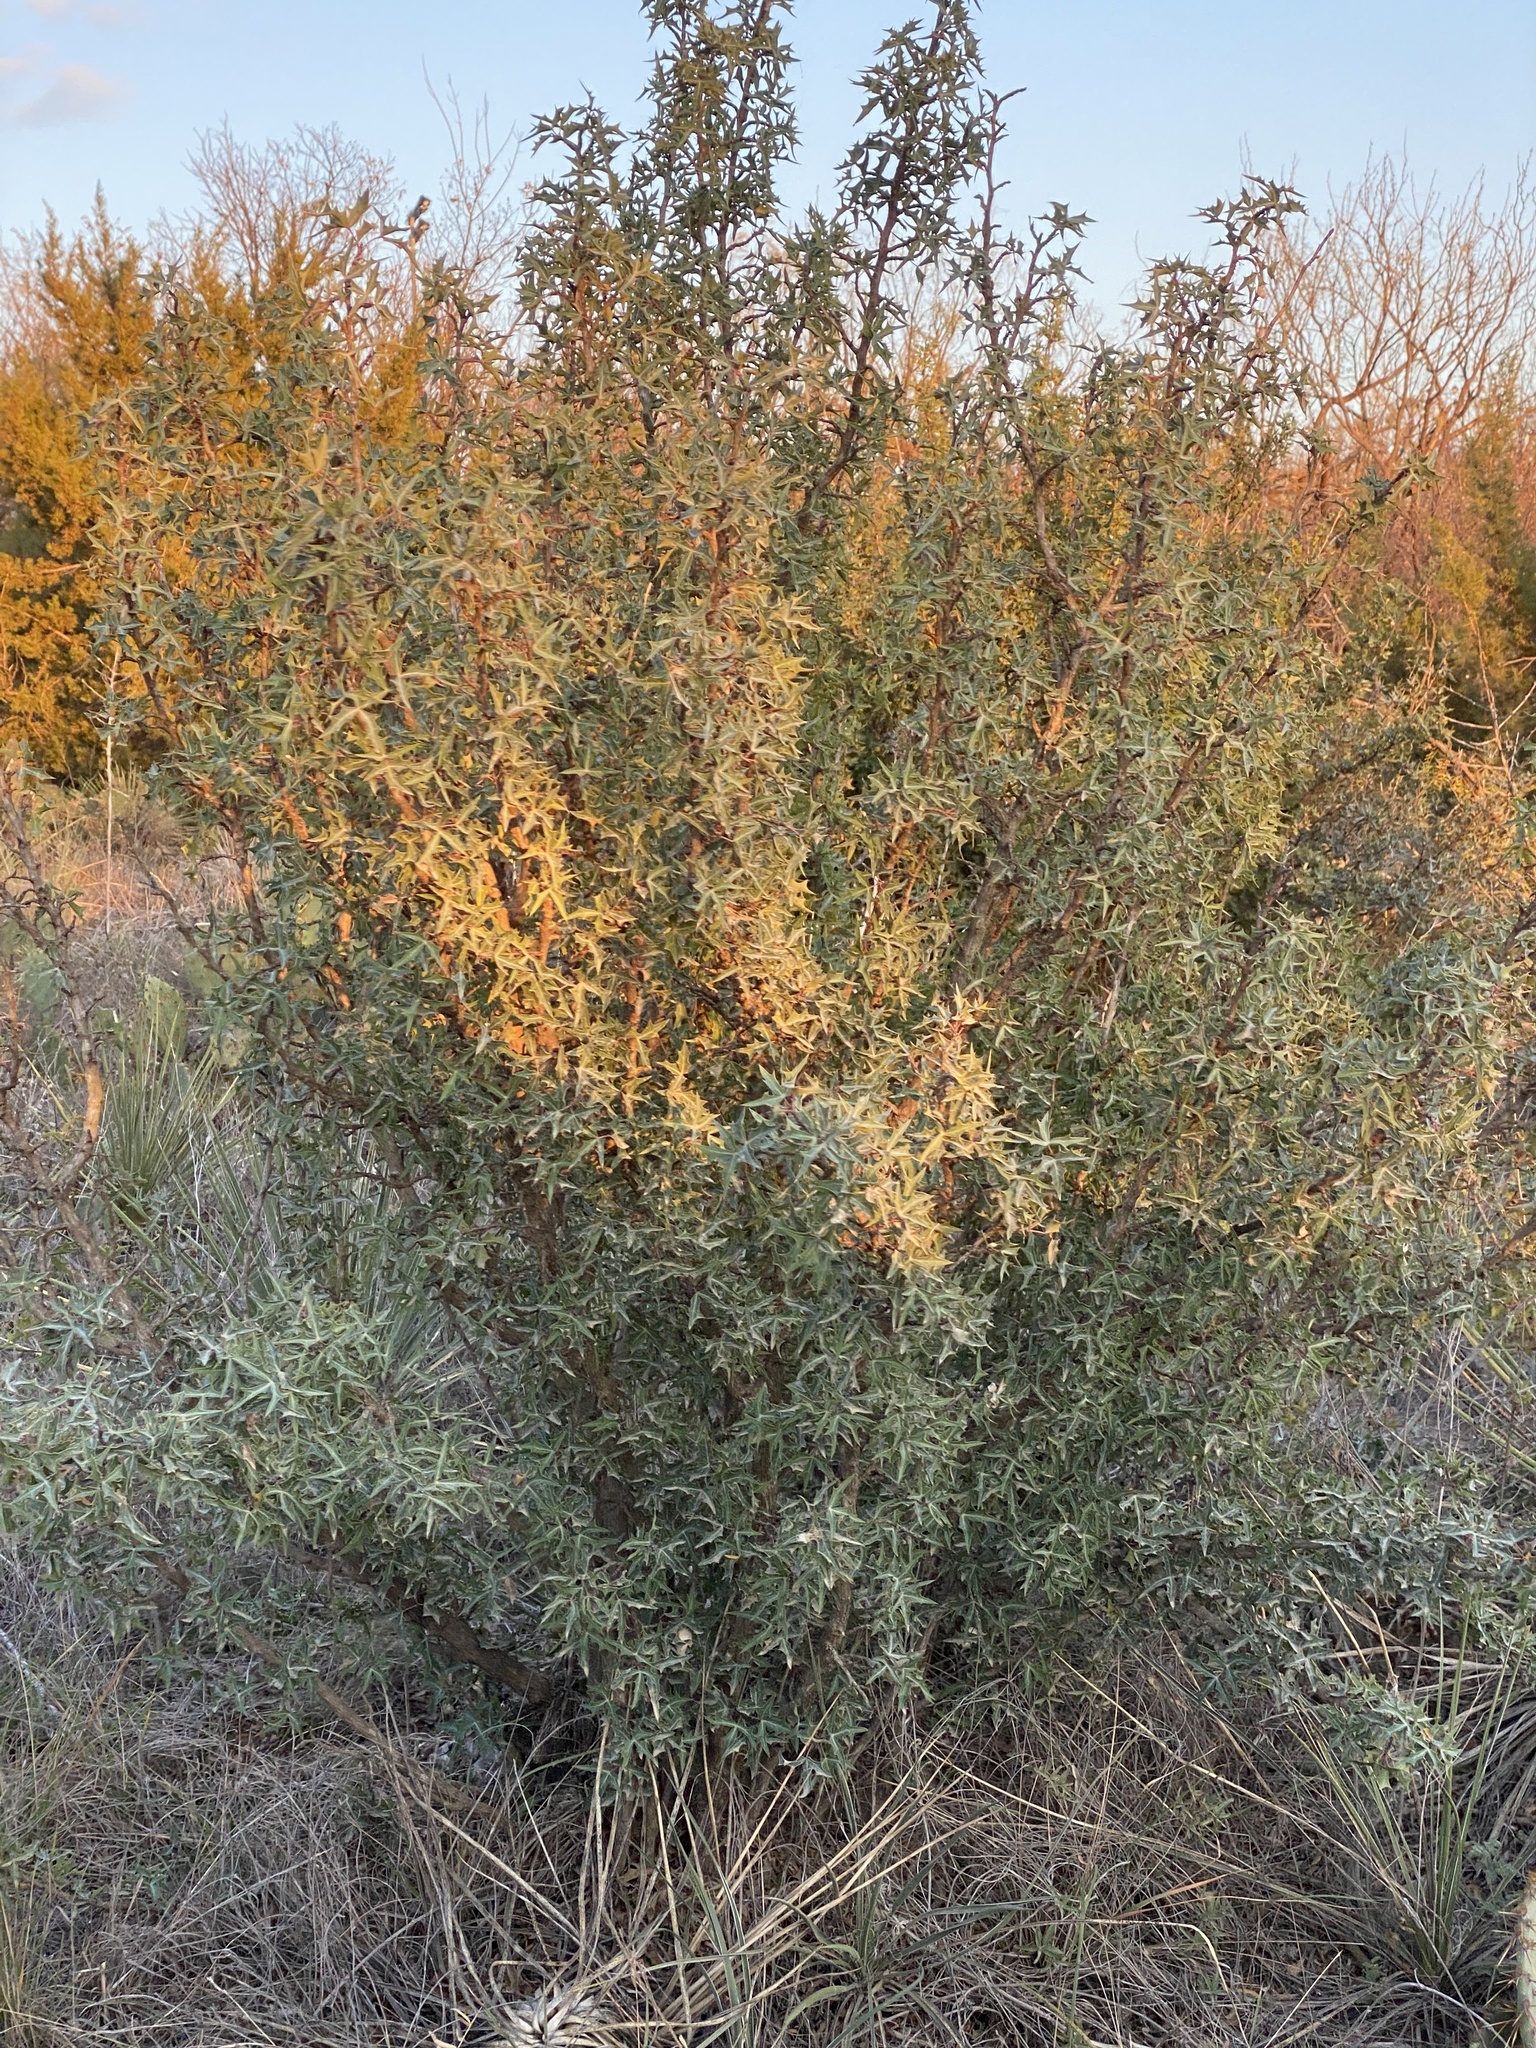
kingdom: Plantae
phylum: Tracheophyta
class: Magnoliopsida
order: Ranunculales
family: Berberidaceae
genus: Alloberberis
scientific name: Alloberberis trifoliolata
